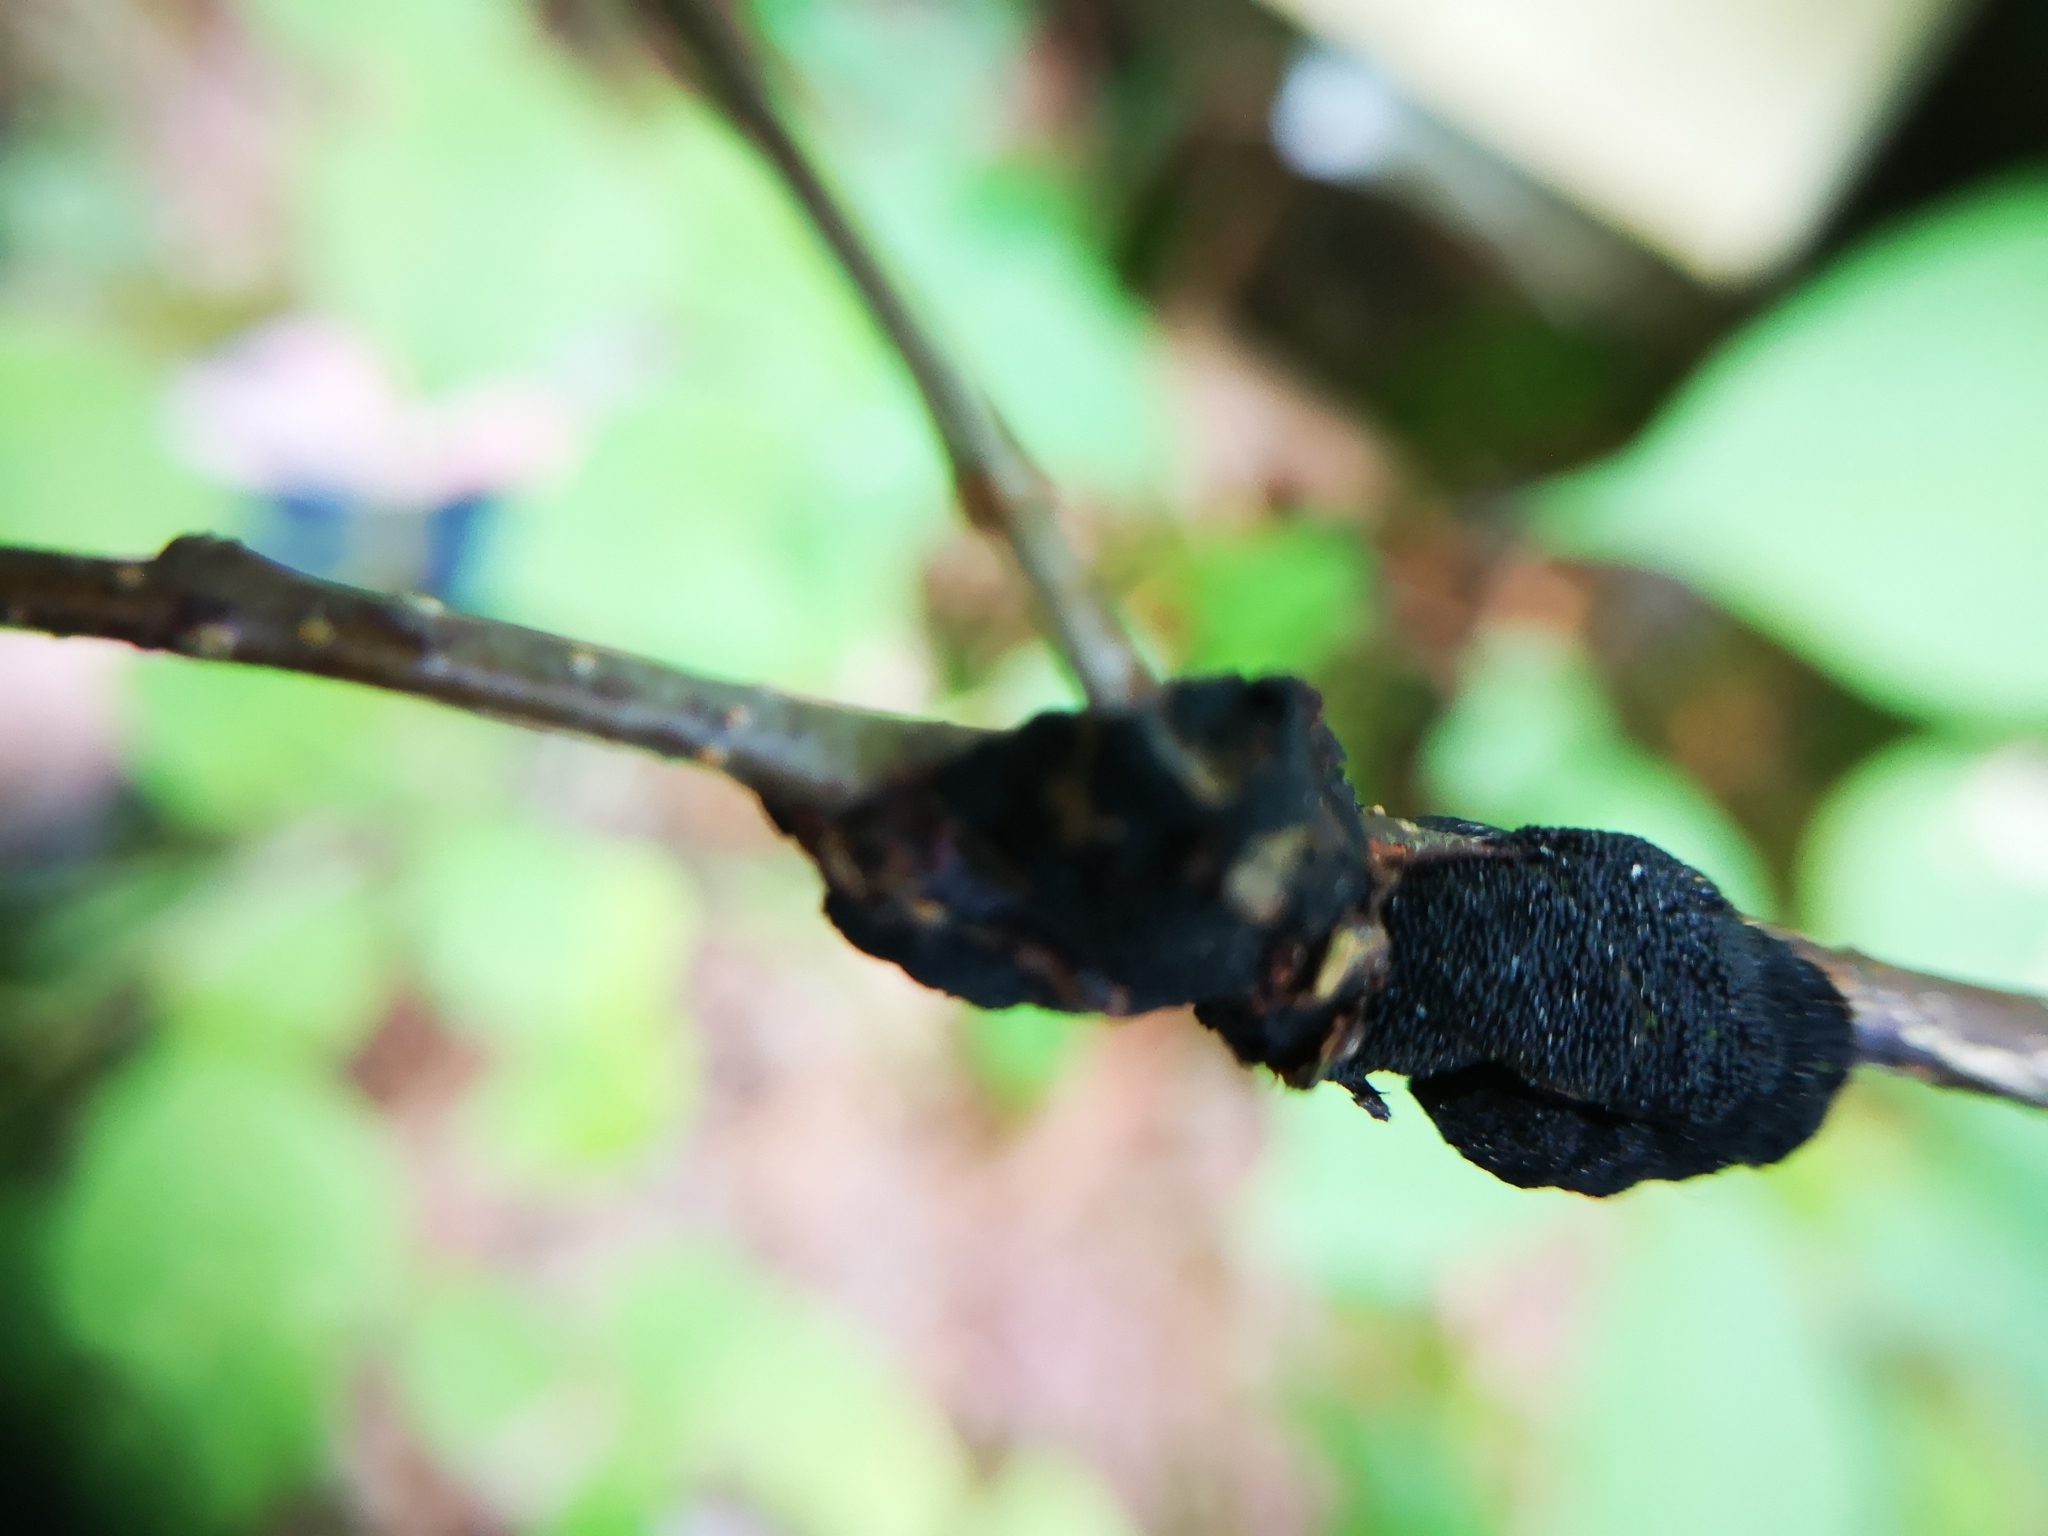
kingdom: Fungi
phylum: Ascomycota
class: Dothideomycetes
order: Venturiales
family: Venturiaceae
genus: Apiosporina
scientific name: Apiosporina morbosa
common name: Black knot
